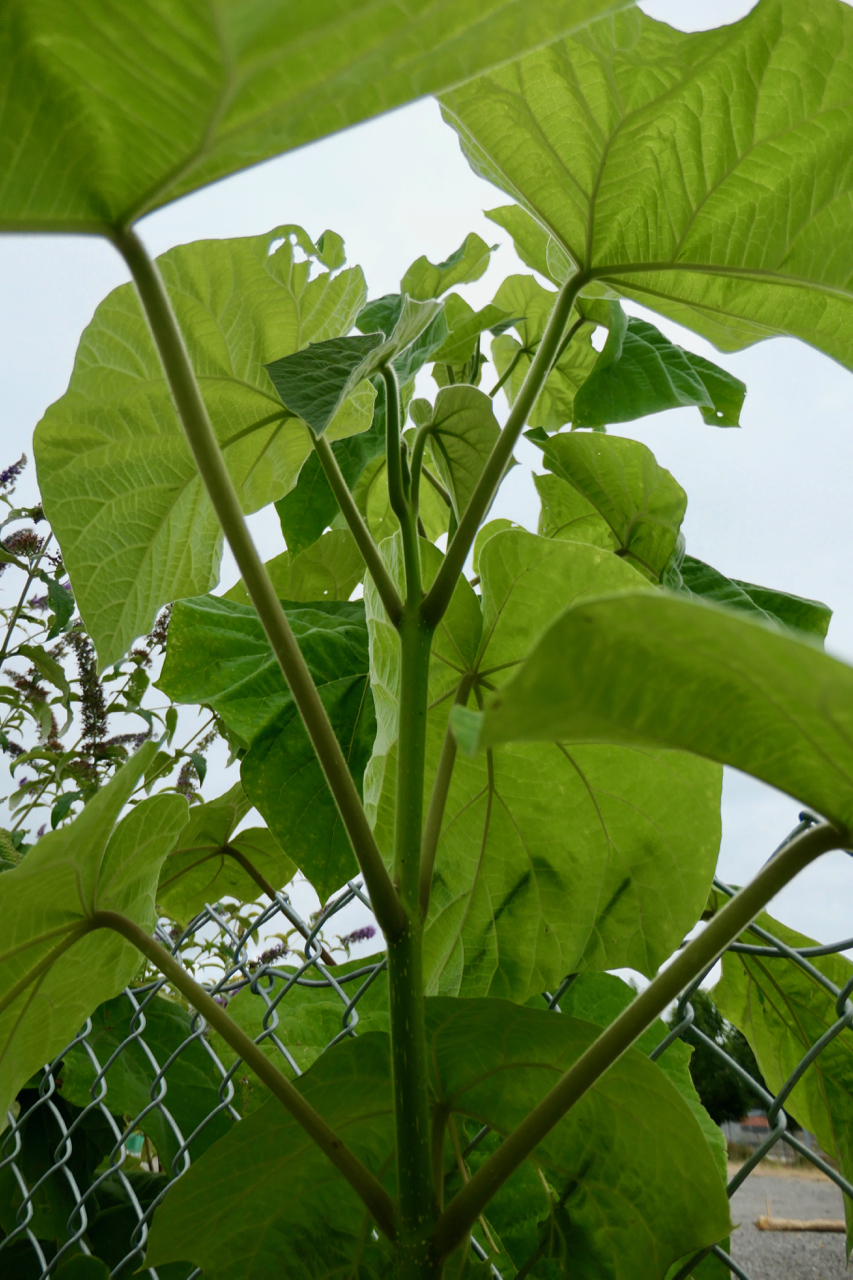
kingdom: Plantae
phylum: Tracheophyta
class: Magnoliopsida
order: Lamiales
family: Paulowniaceae
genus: Paulownia
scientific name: Paulownia tomentosa
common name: Foxglove-tree
